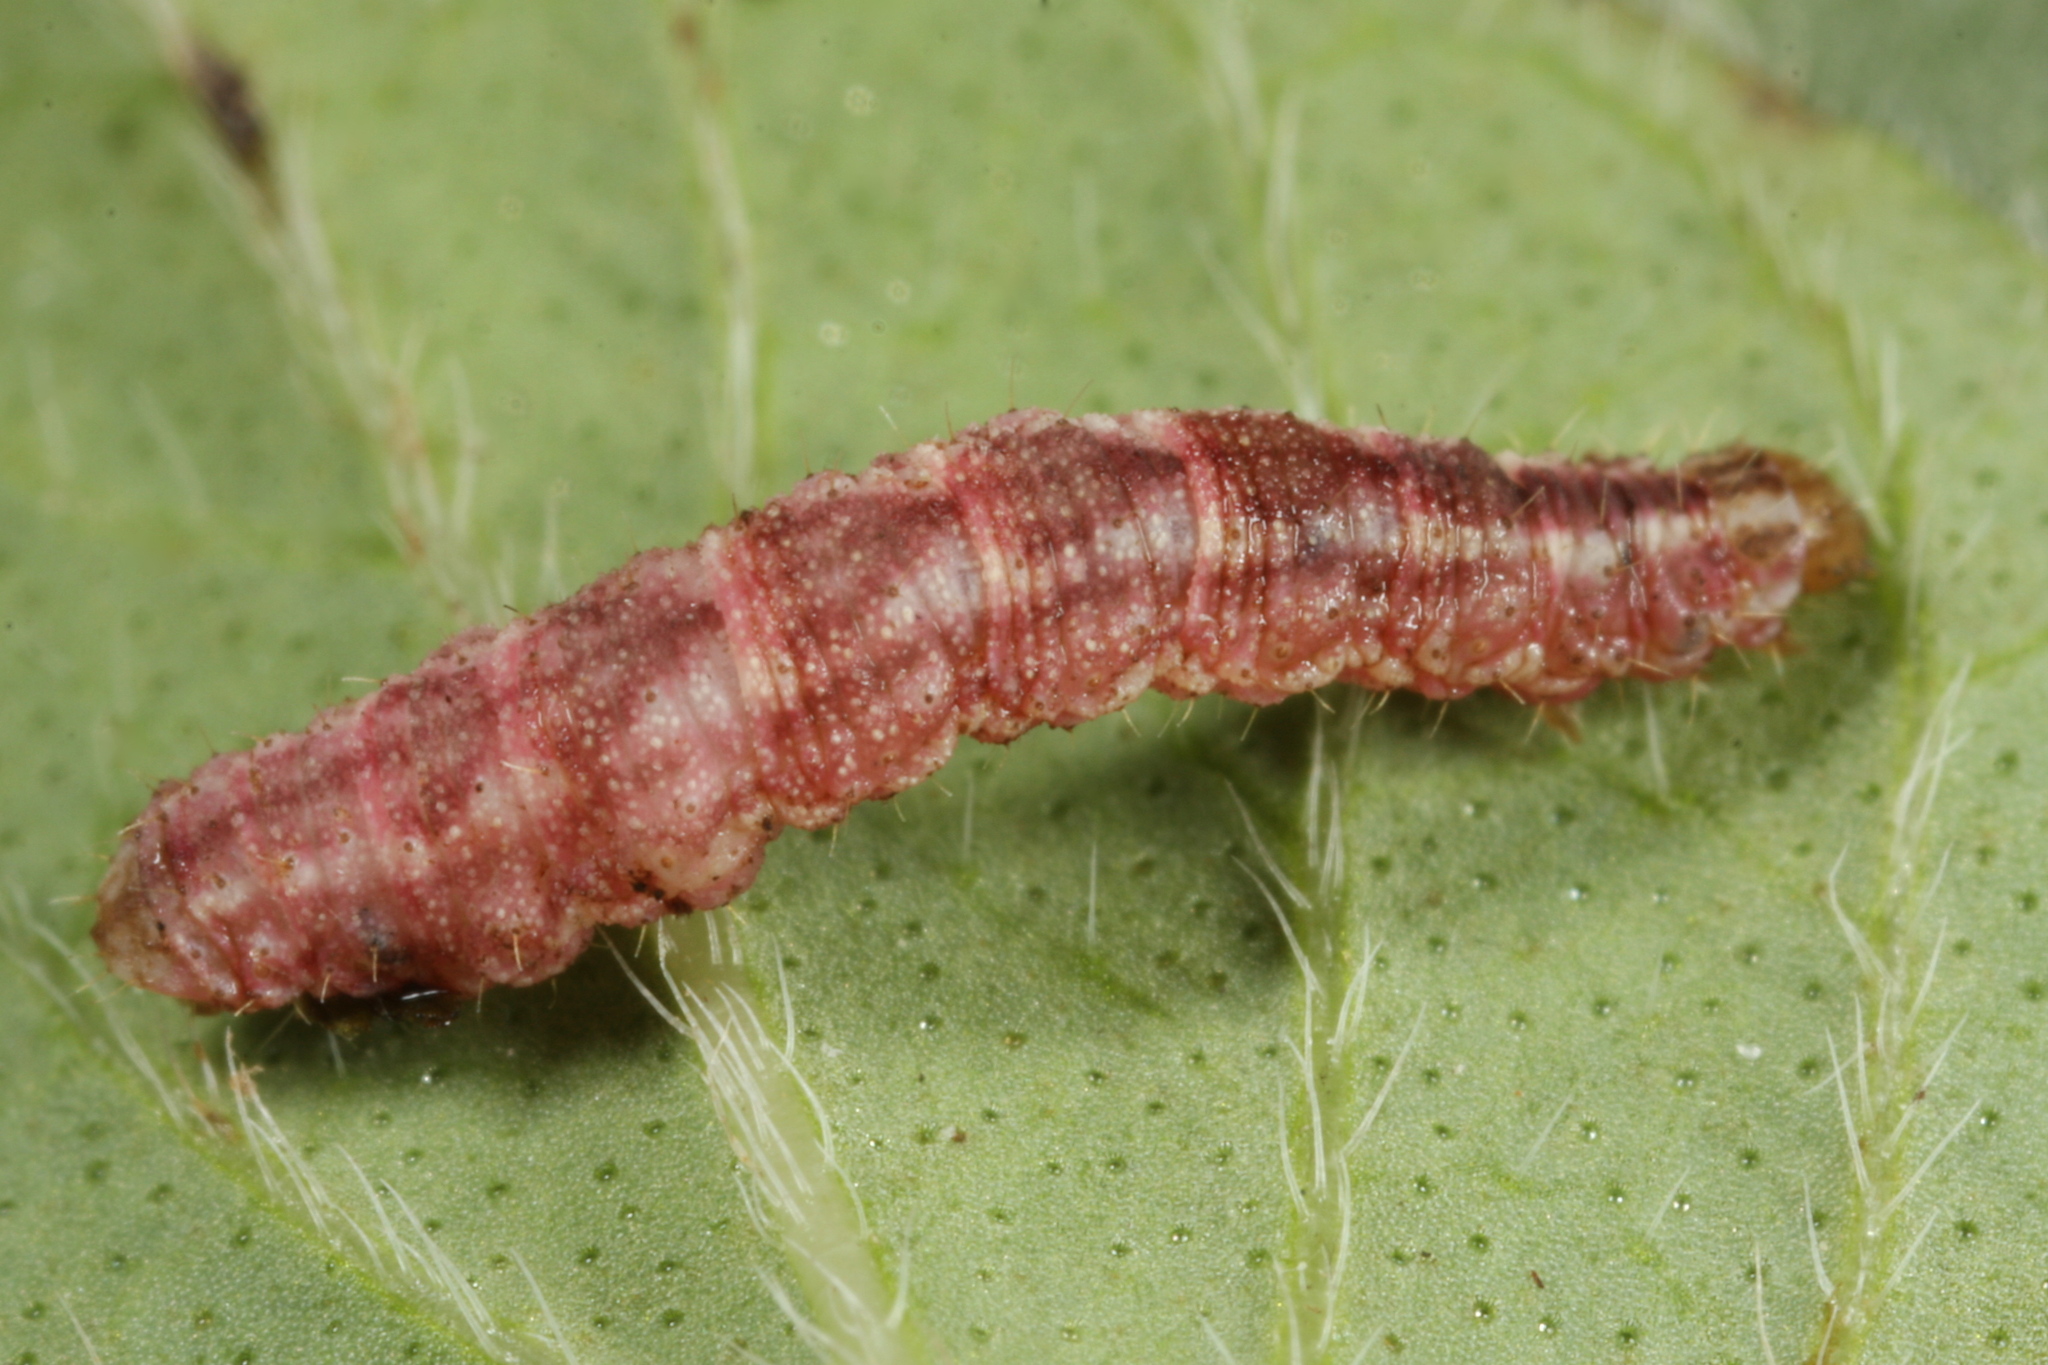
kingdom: Animalia
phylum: Arthropoda
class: Insecta
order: Lepidoptera
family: Geometridae
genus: Gymnoscelis
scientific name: Gymnoscelis rufifasciata
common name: Double-striped pug
